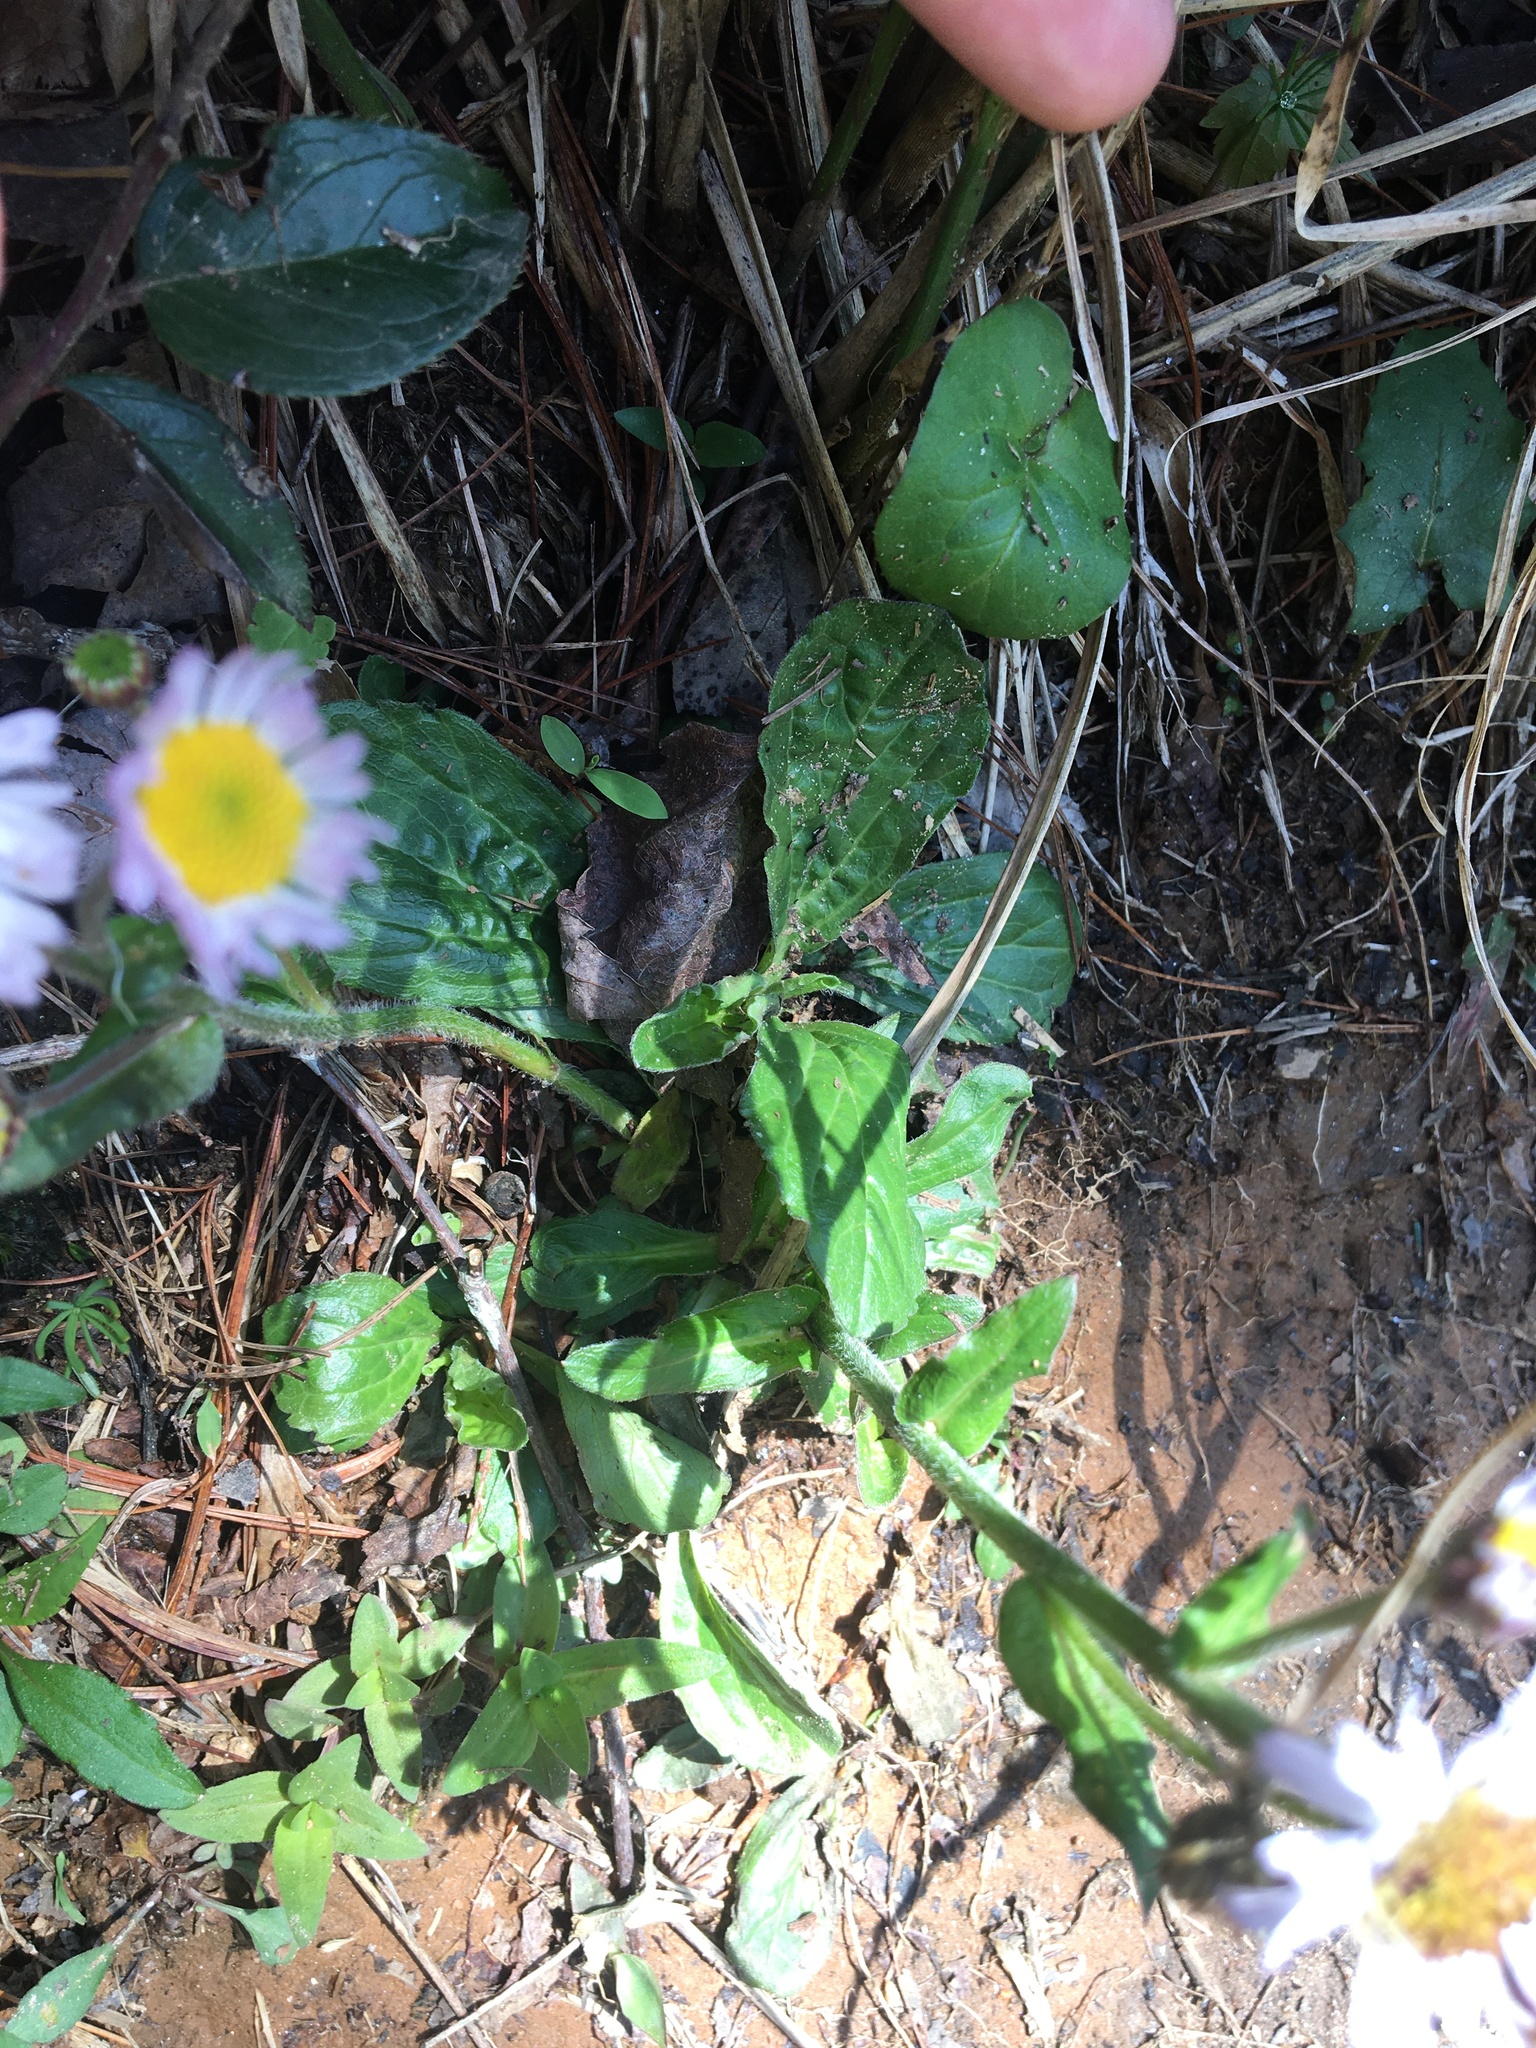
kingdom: Plantae
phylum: Tracheophyta
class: Magnoliopsida
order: Asterales
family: Asteraceae
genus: Erigeron
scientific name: Erigeron pulchellus
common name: Hairy fleabane
